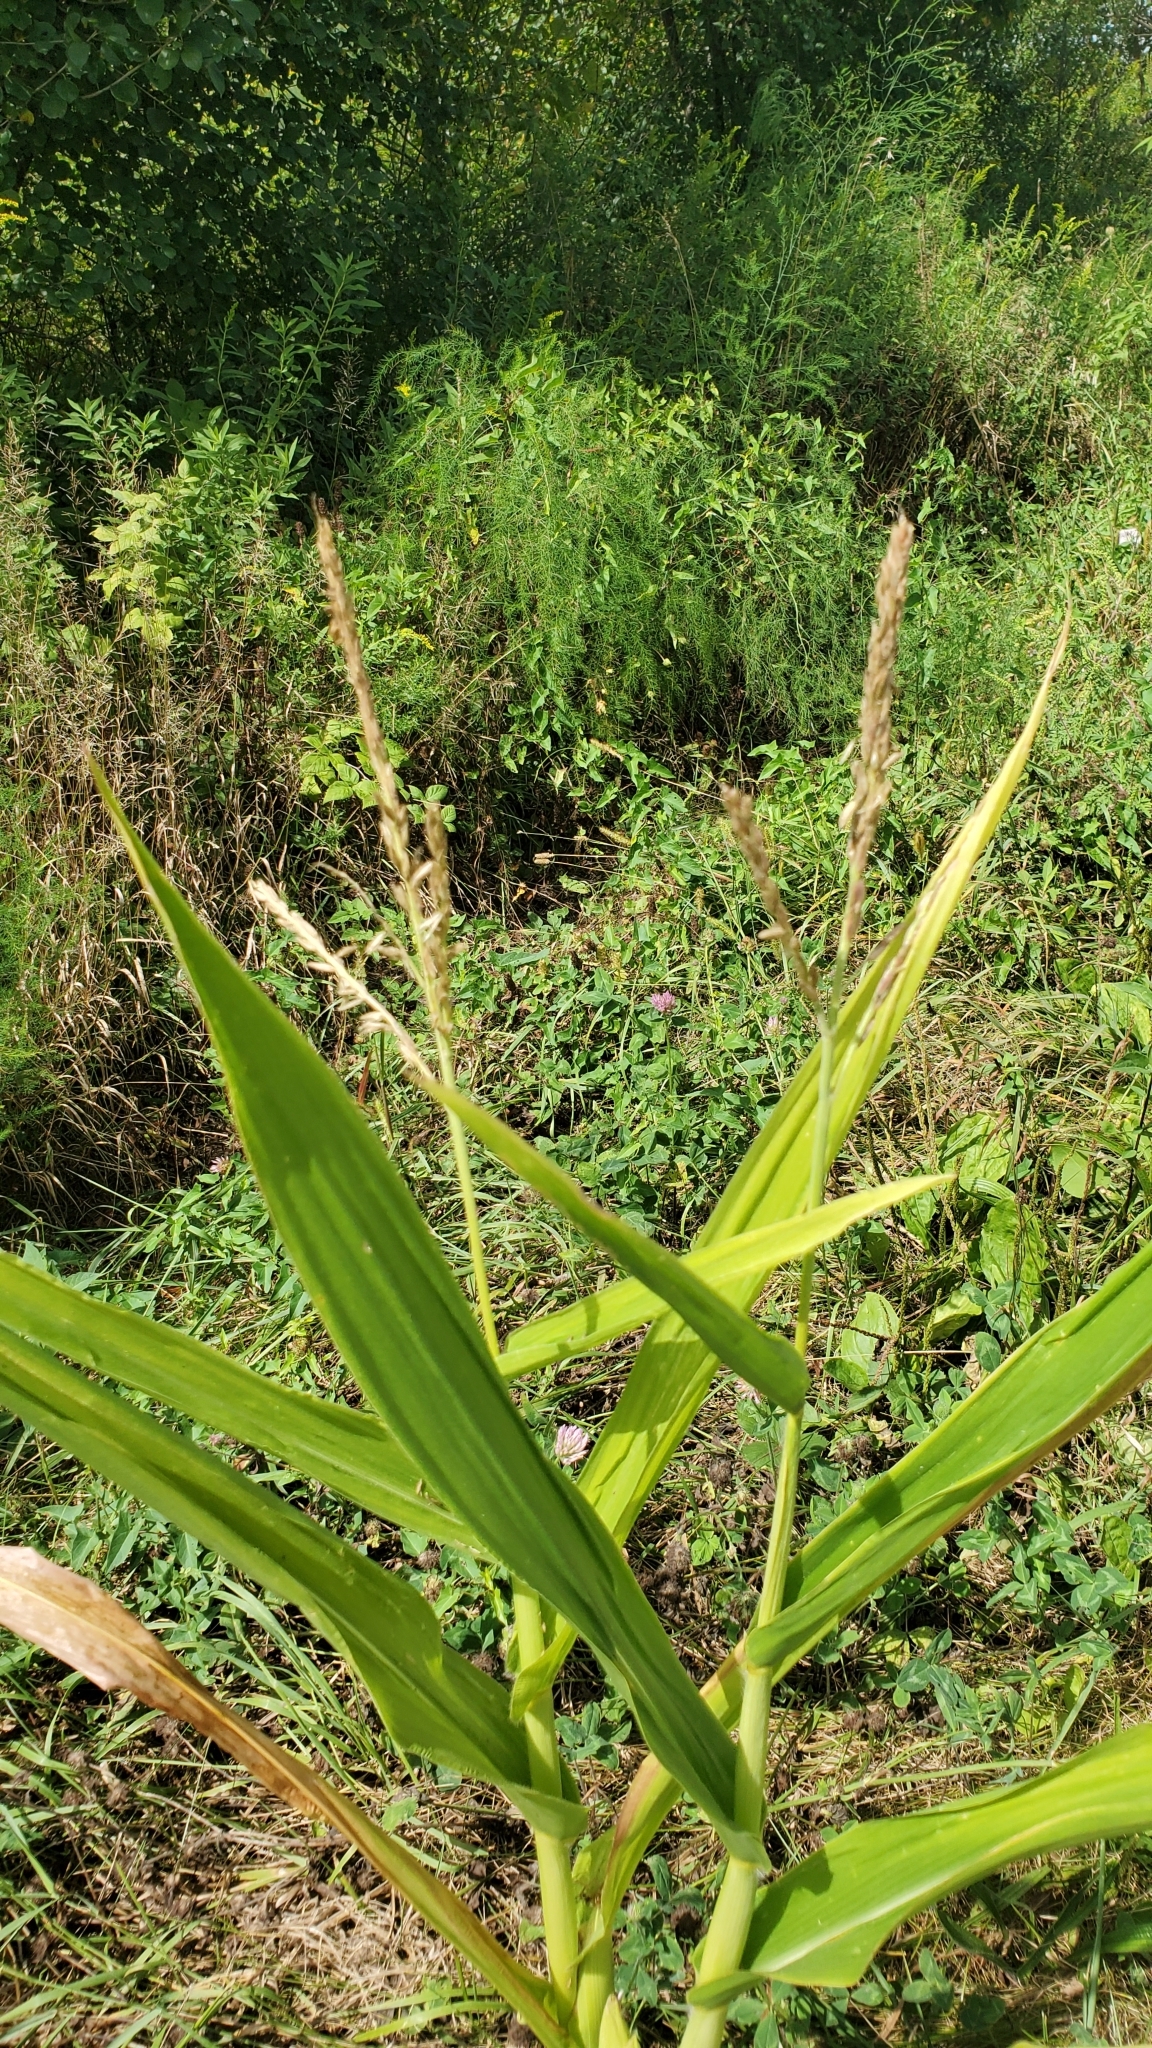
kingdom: Plantae
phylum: Tracheophyta
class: Liliopsida
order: Poales
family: Poaceae
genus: Zea
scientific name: Zea mays
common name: Maize
